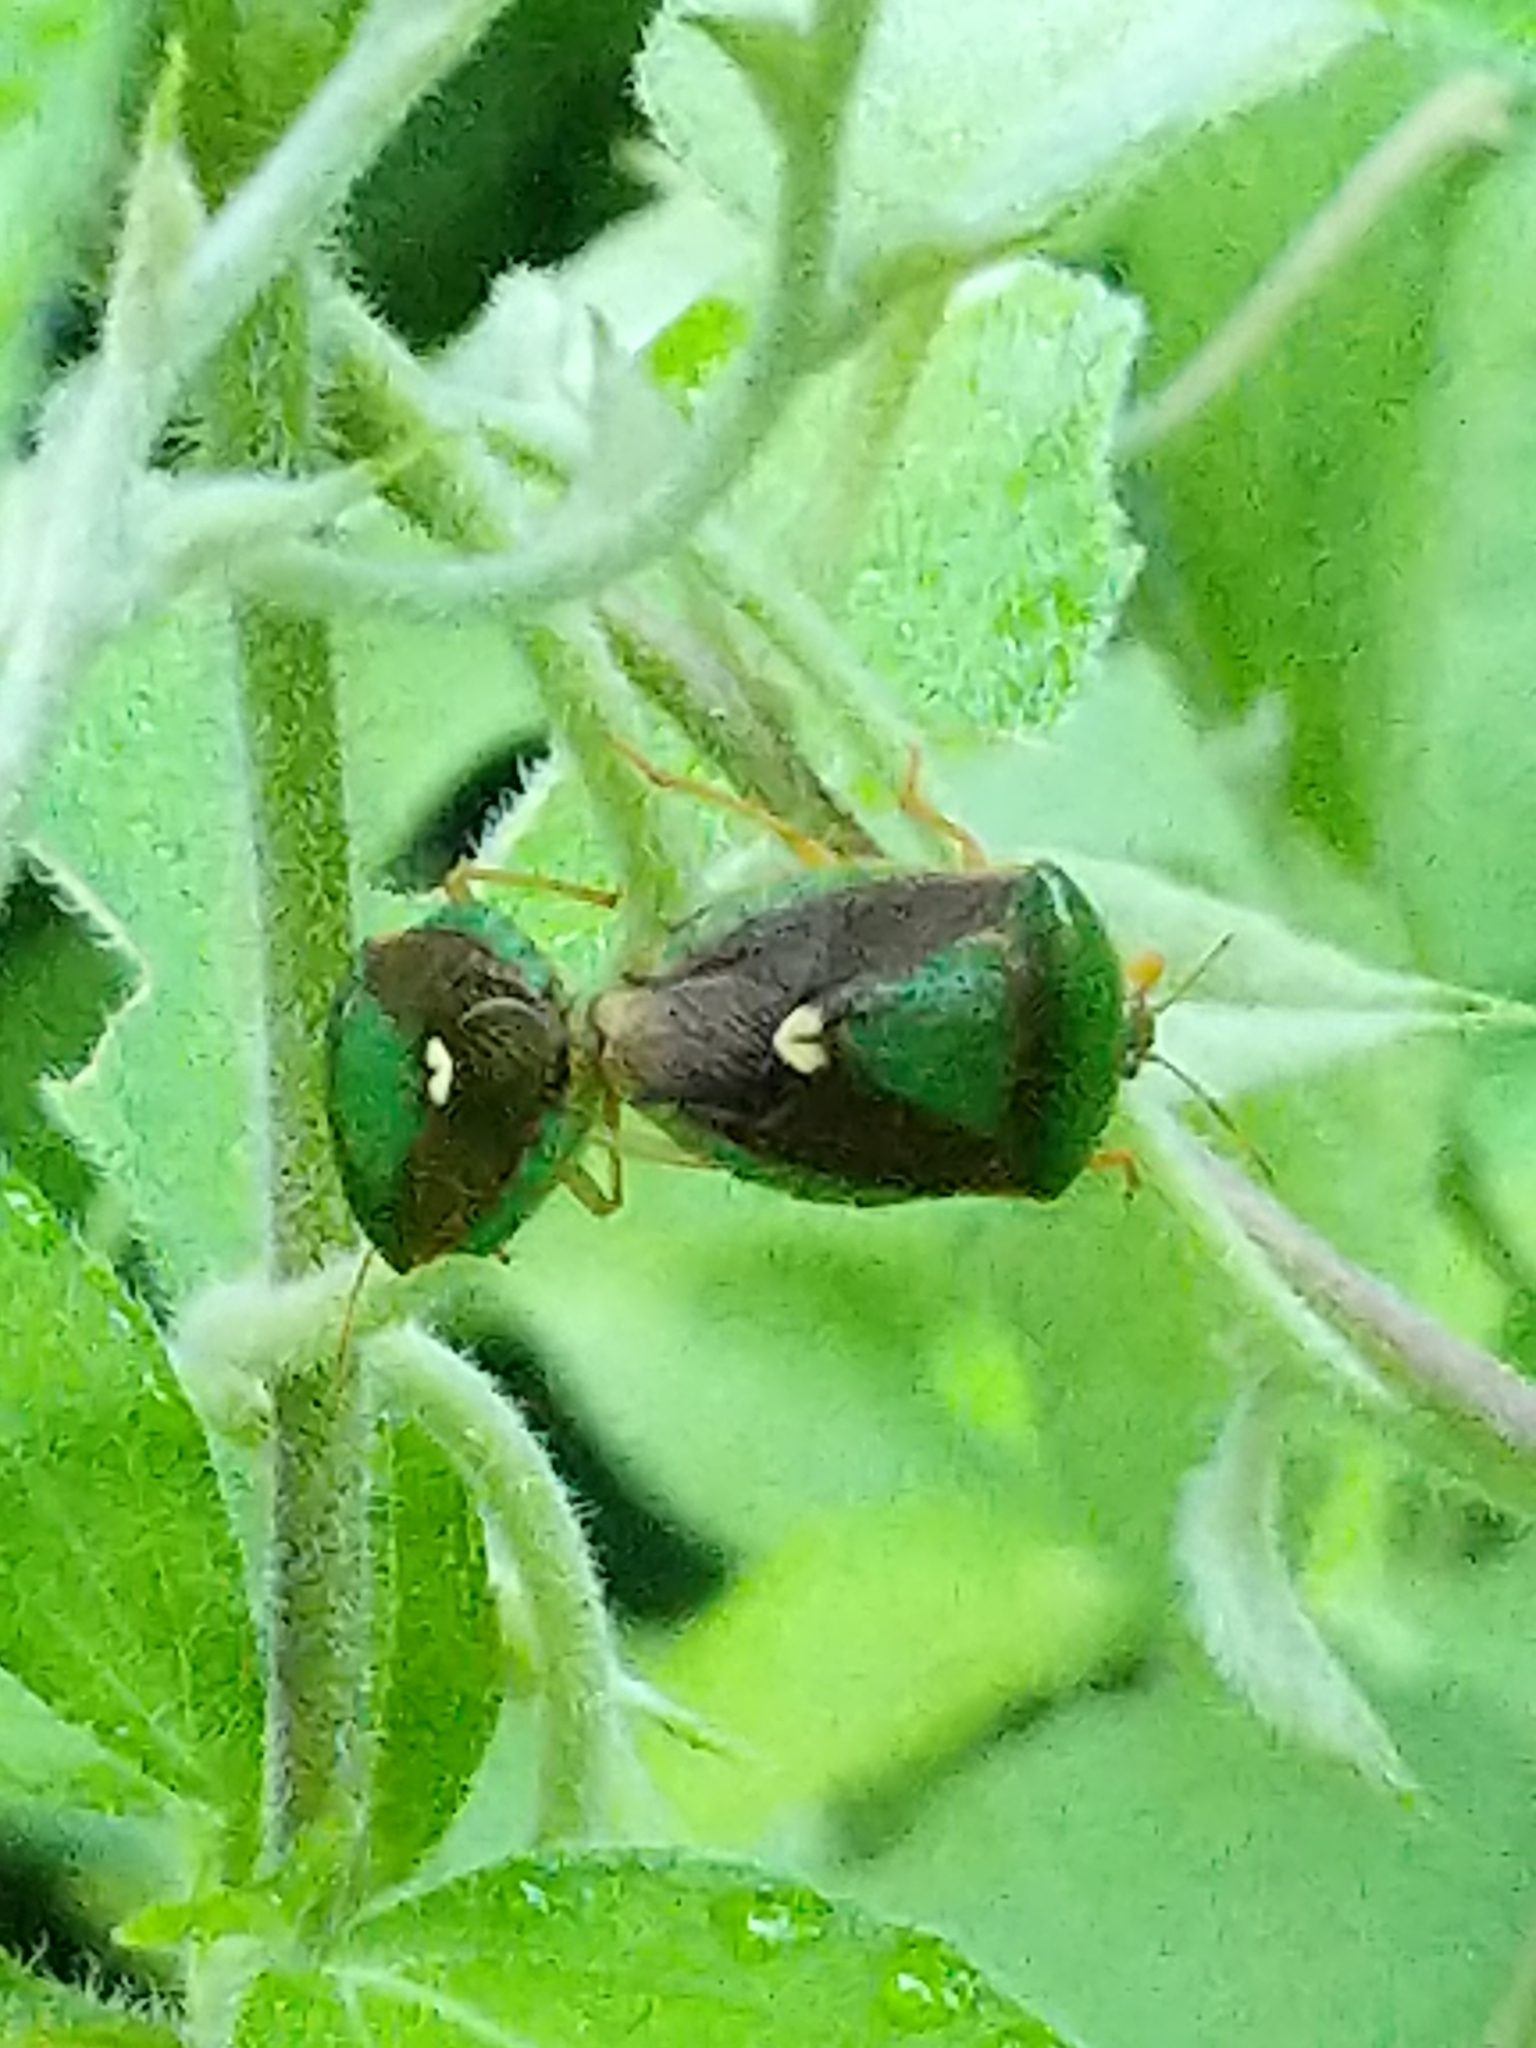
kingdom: Animalia
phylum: Arthropoda
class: Insecta
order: Hemiptera
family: Pentatomidae
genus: Edessa
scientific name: Edessa bifida
